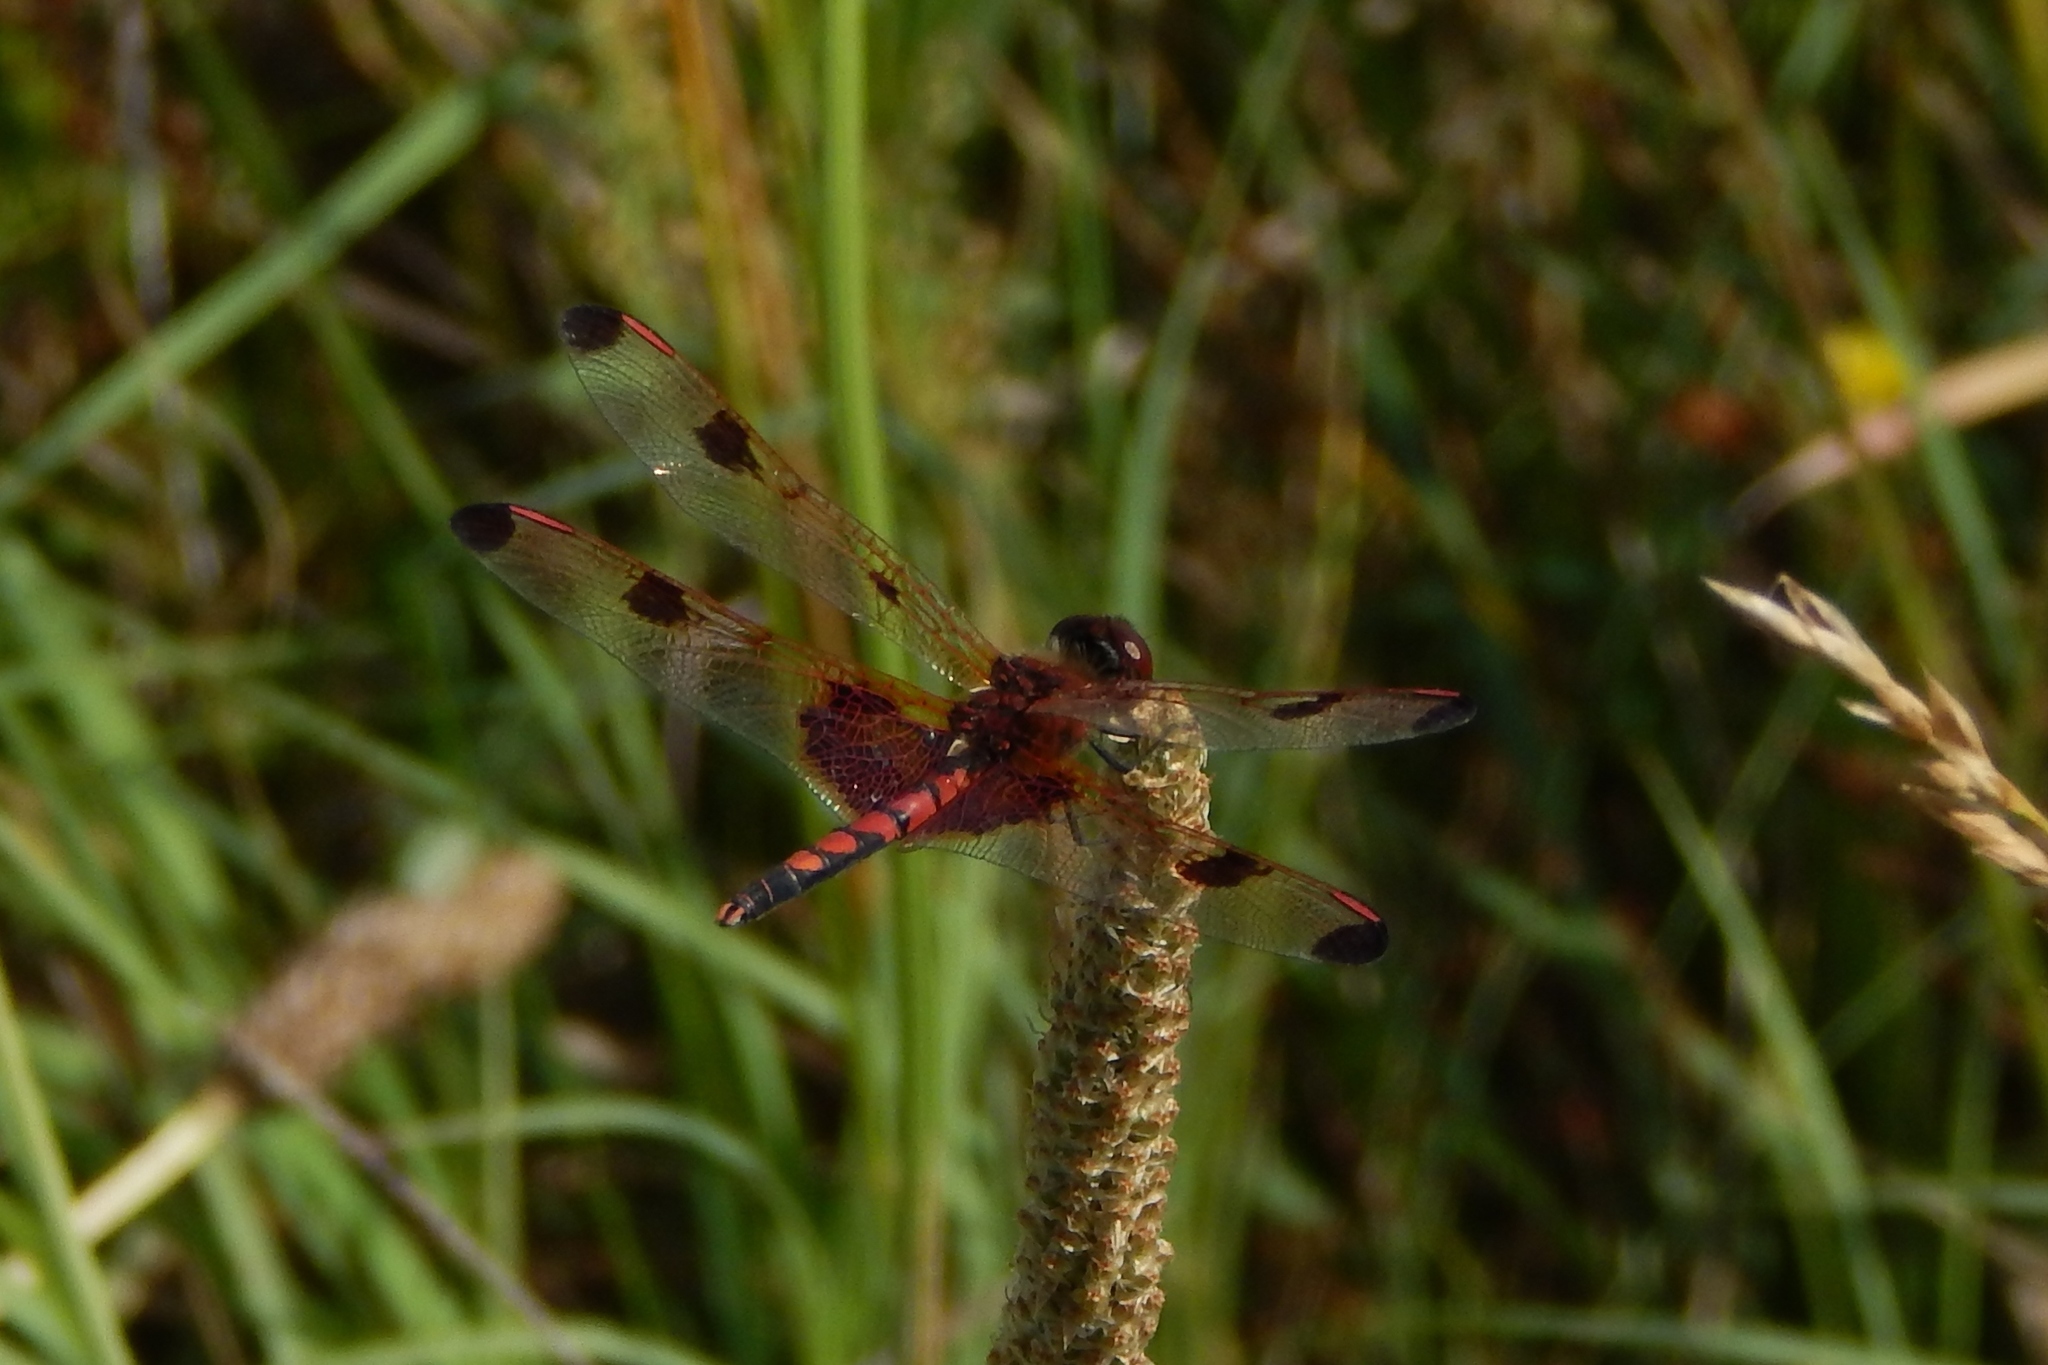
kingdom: Animalia
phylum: Arthropoda
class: Insecta
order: Odonata
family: Libellulidae
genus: Celithemis
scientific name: Celithemis elisa
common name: Calico pennant
